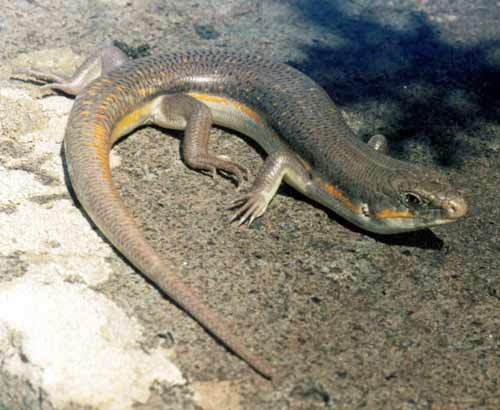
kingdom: Animalia
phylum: Chordata
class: Squamata
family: Scincidae
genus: Eumeces
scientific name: Eumeces schneiderii
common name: Schneider's skink
